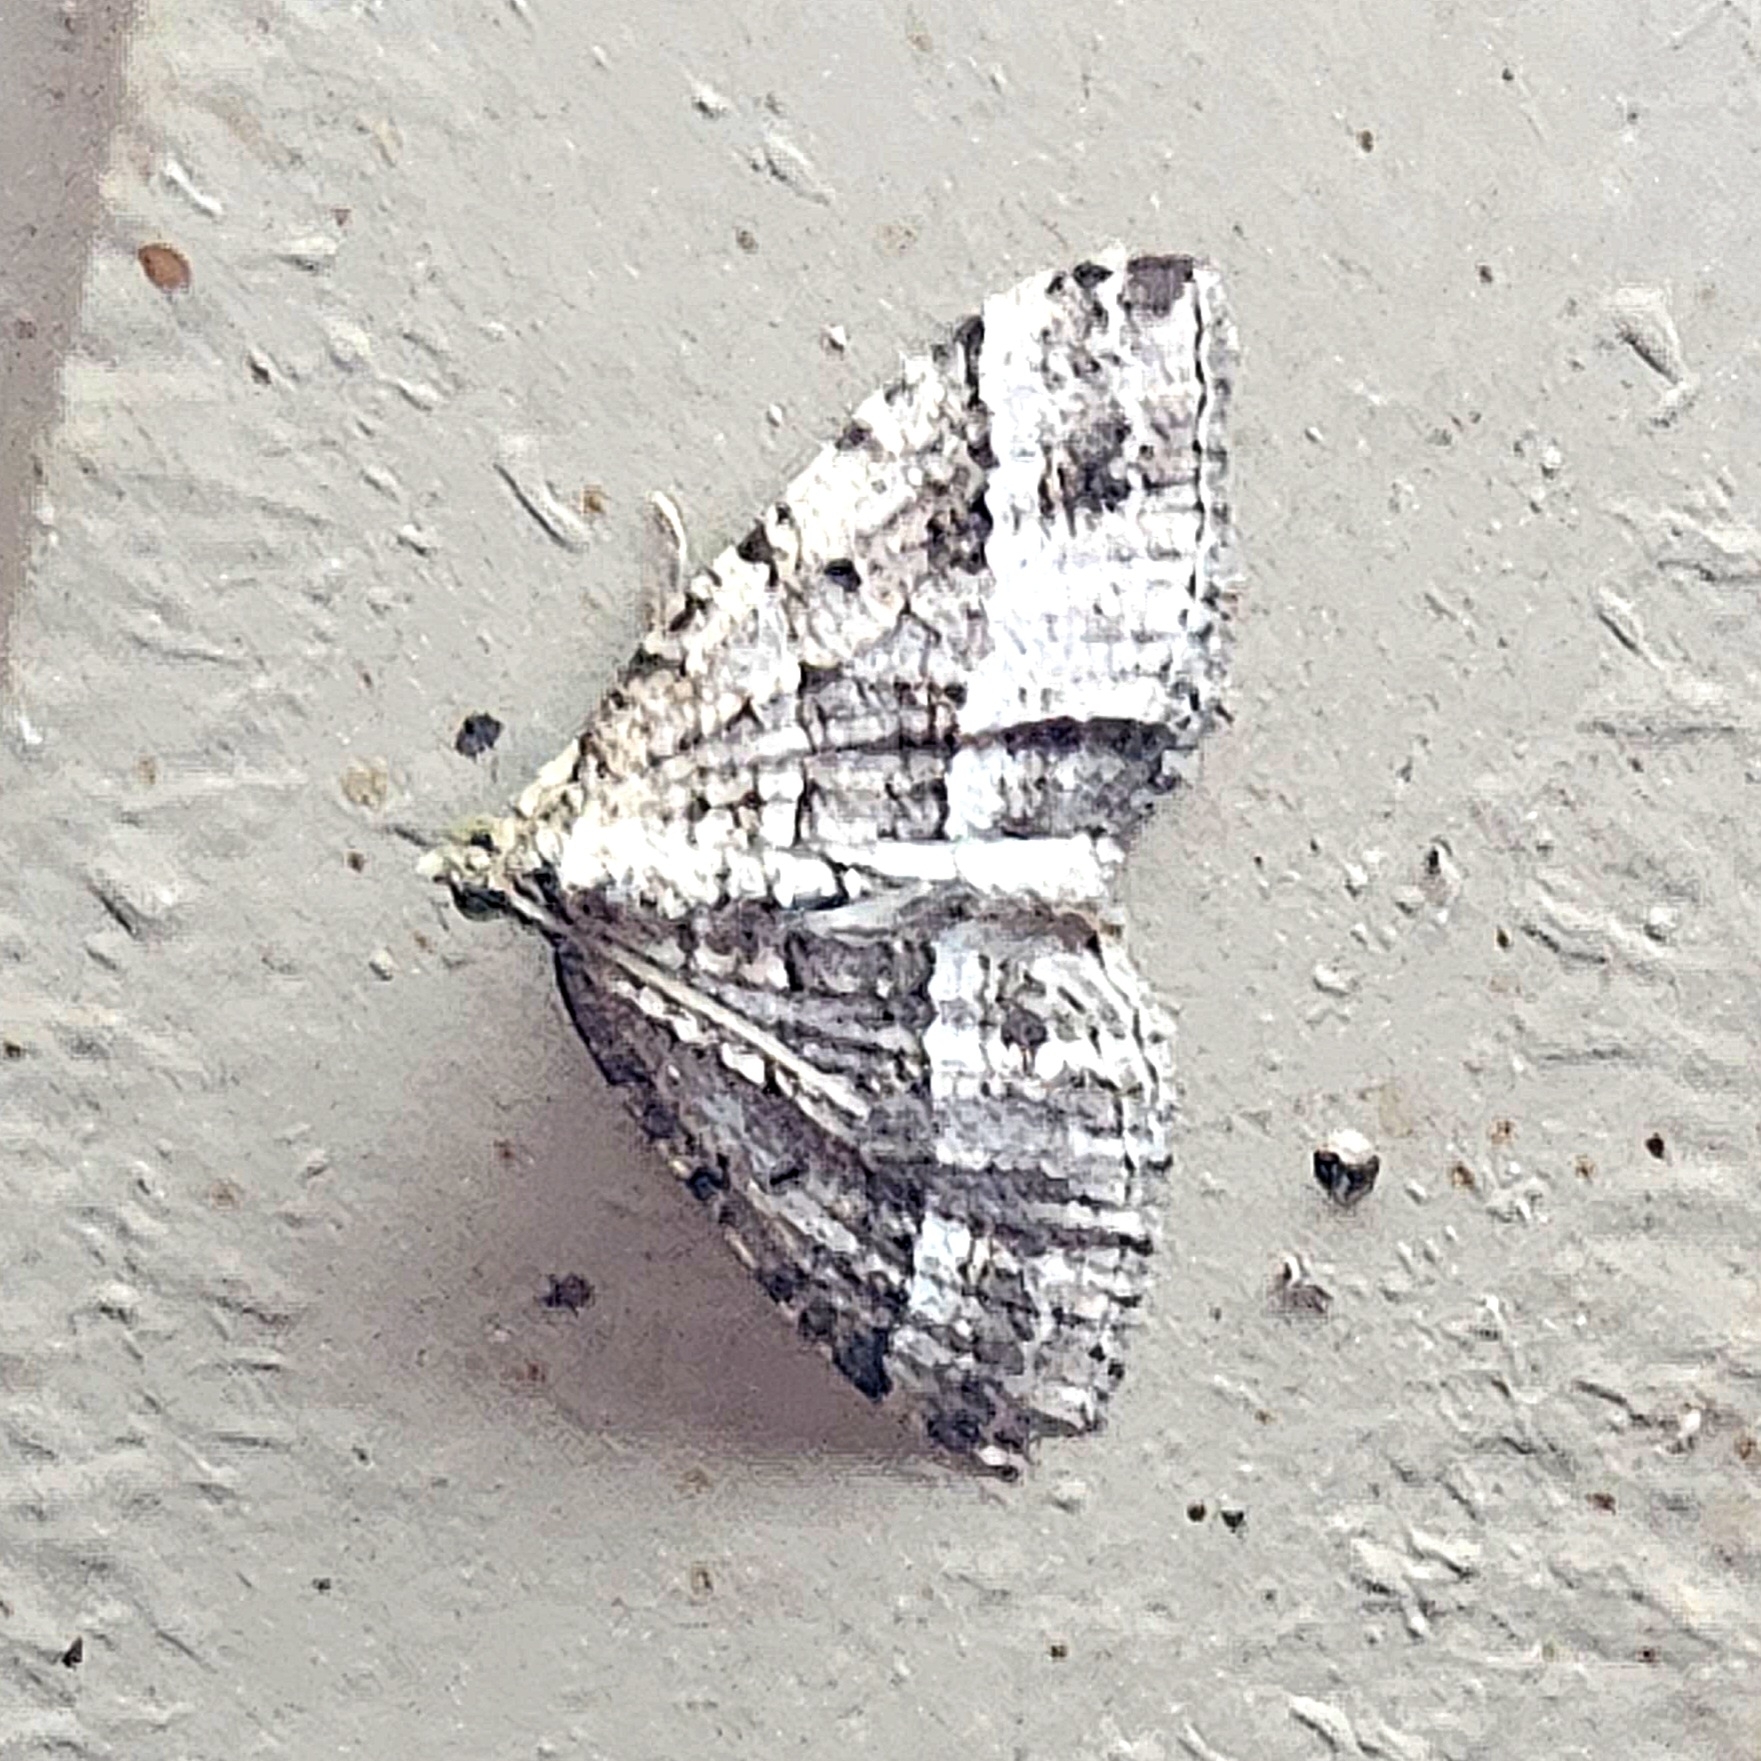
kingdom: Animalia
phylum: Arthropoda
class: Insecta
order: Lepidoptera
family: Geometridae
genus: Chrysolarentia
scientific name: Chrysolarentia subrectaria
